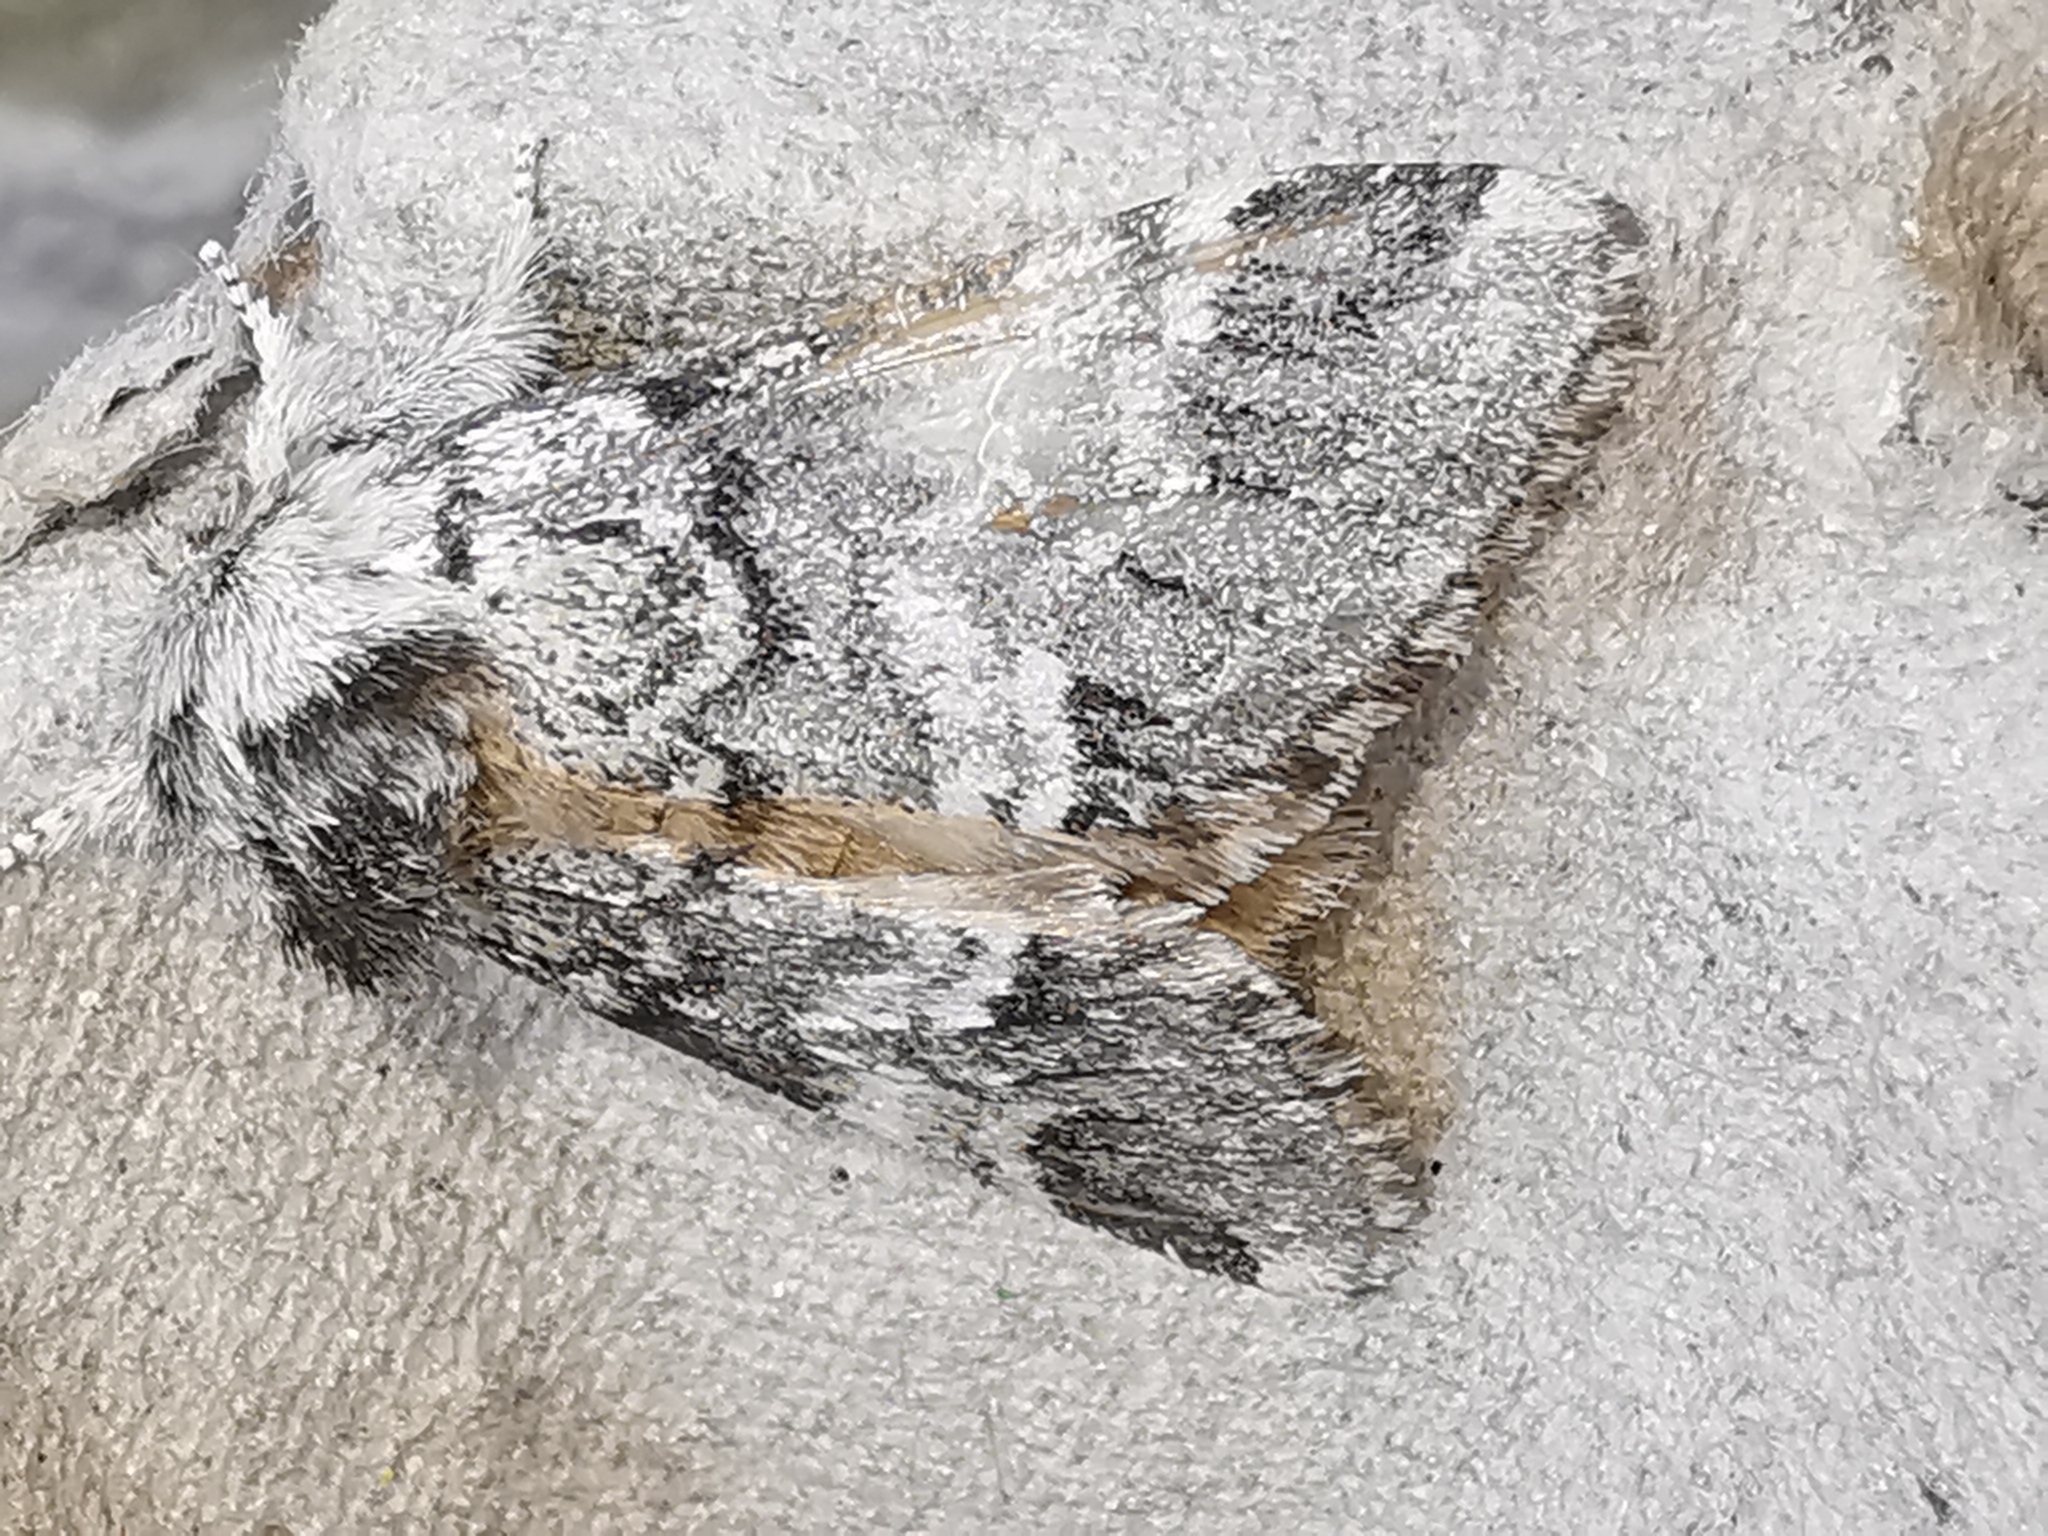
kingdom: Animalia
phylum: Arthropoda
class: Insecta
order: Lepidoptera
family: Notodontidae
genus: Drymonia
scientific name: Drymonia dodonaea
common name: Marbled brown
